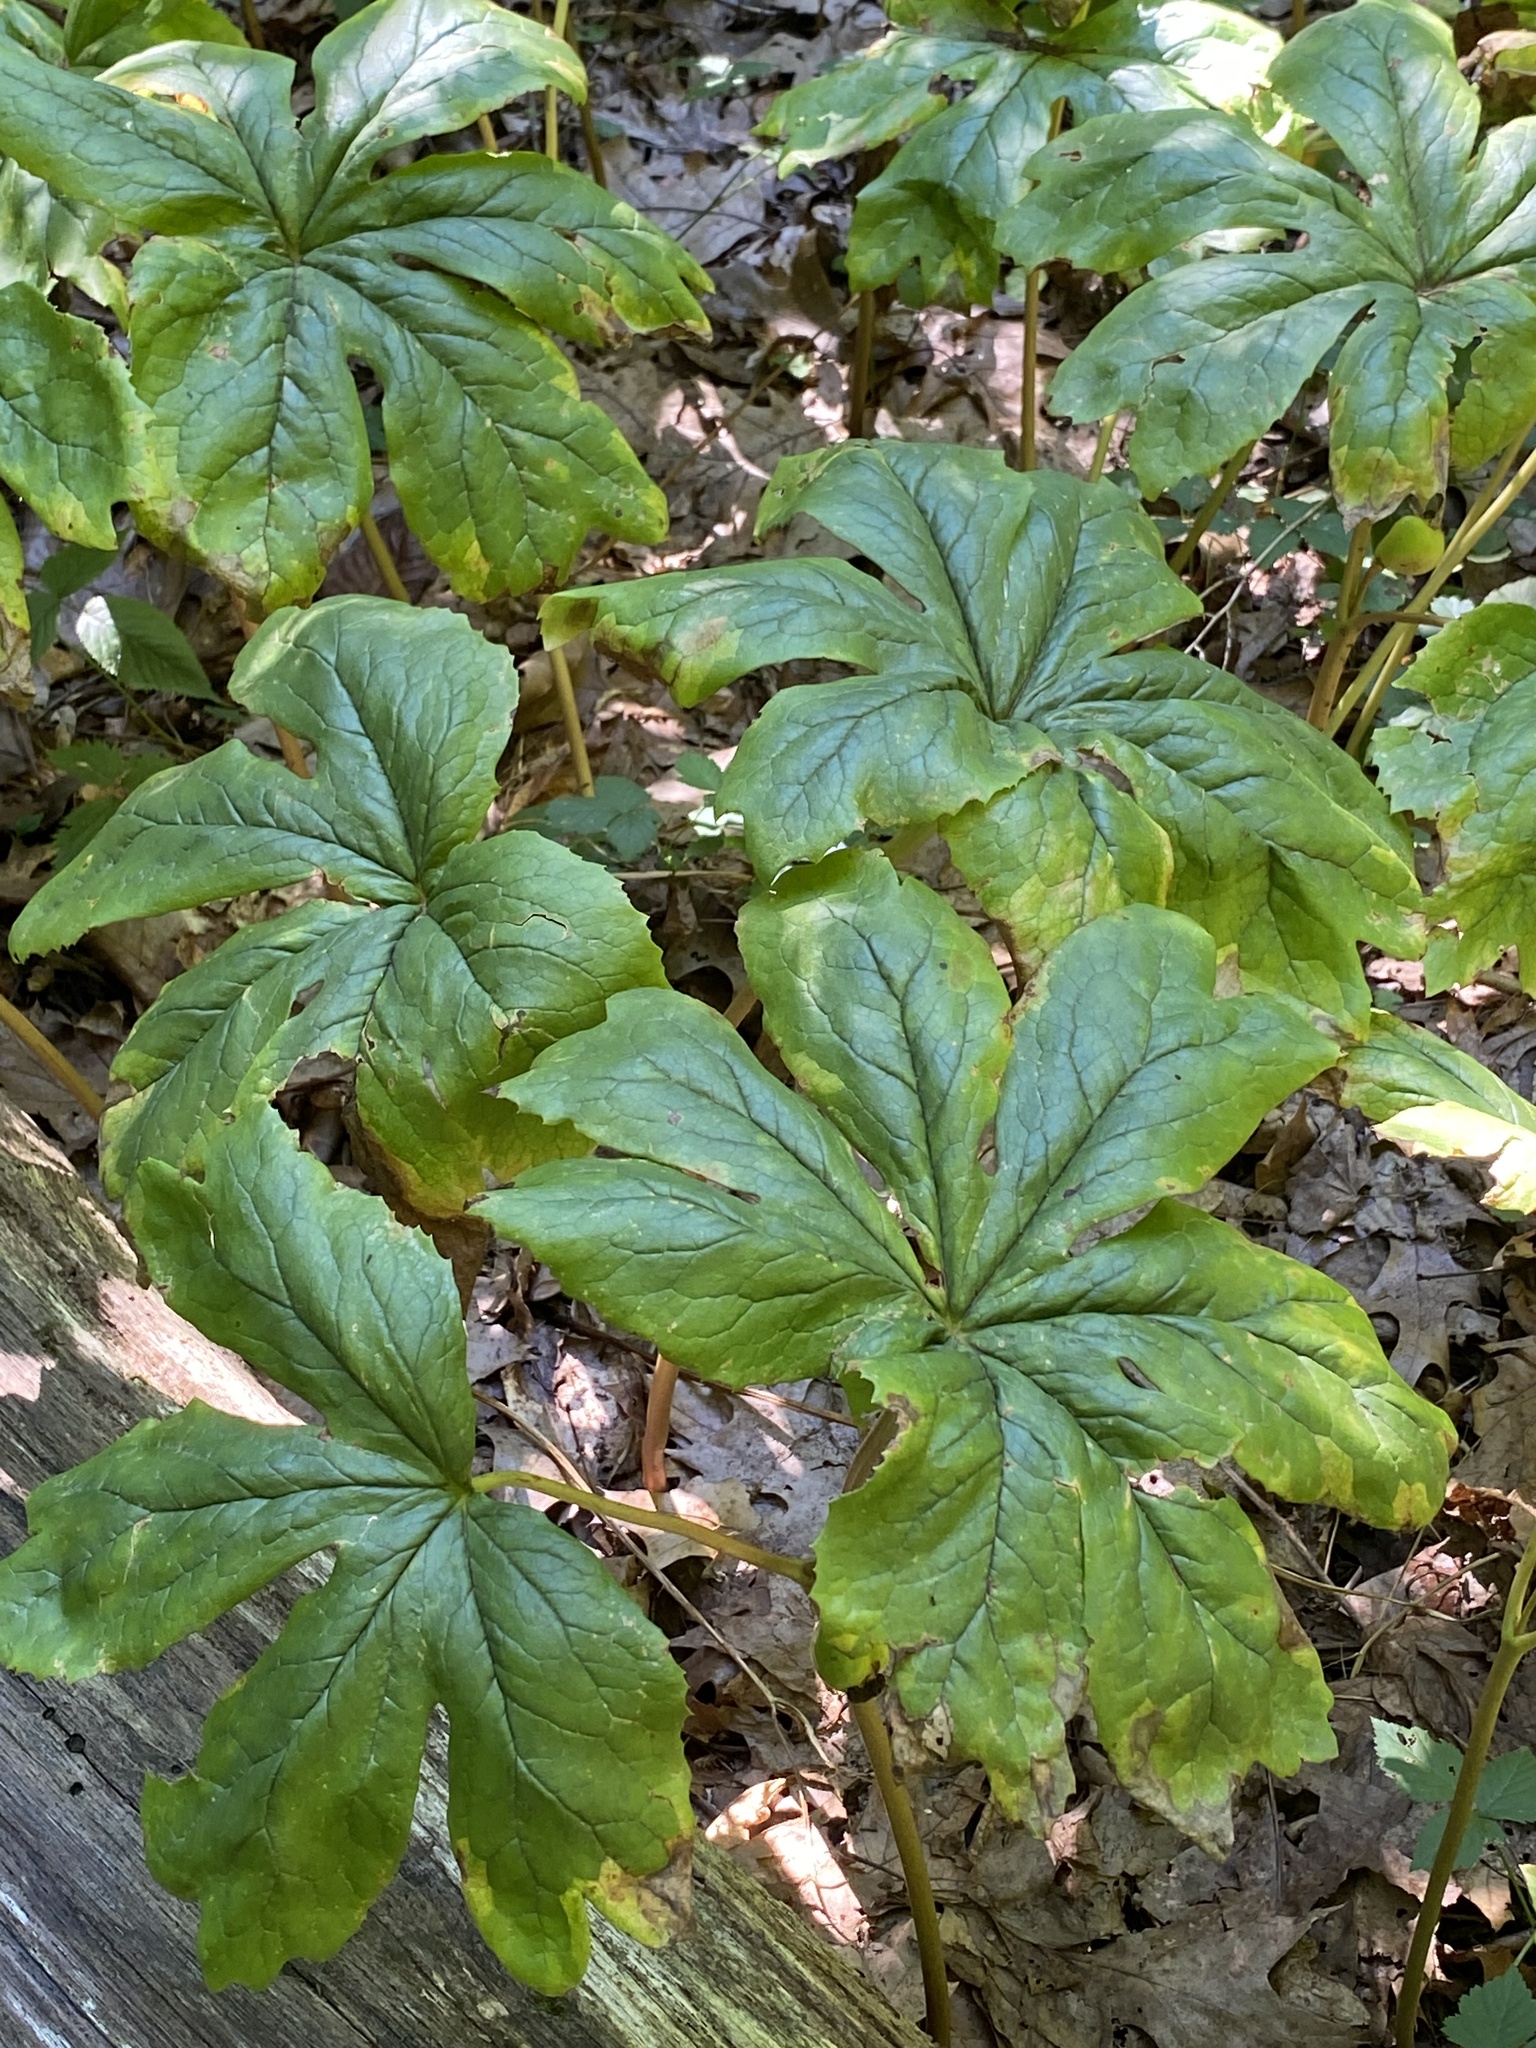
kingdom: Plantae
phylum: Tracheophyta
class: Magnoliopsida
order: Ranunculales
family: Berberidaceae
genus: Podophyllum
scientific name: Podophyllum peltatum
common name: Wild mandrake
